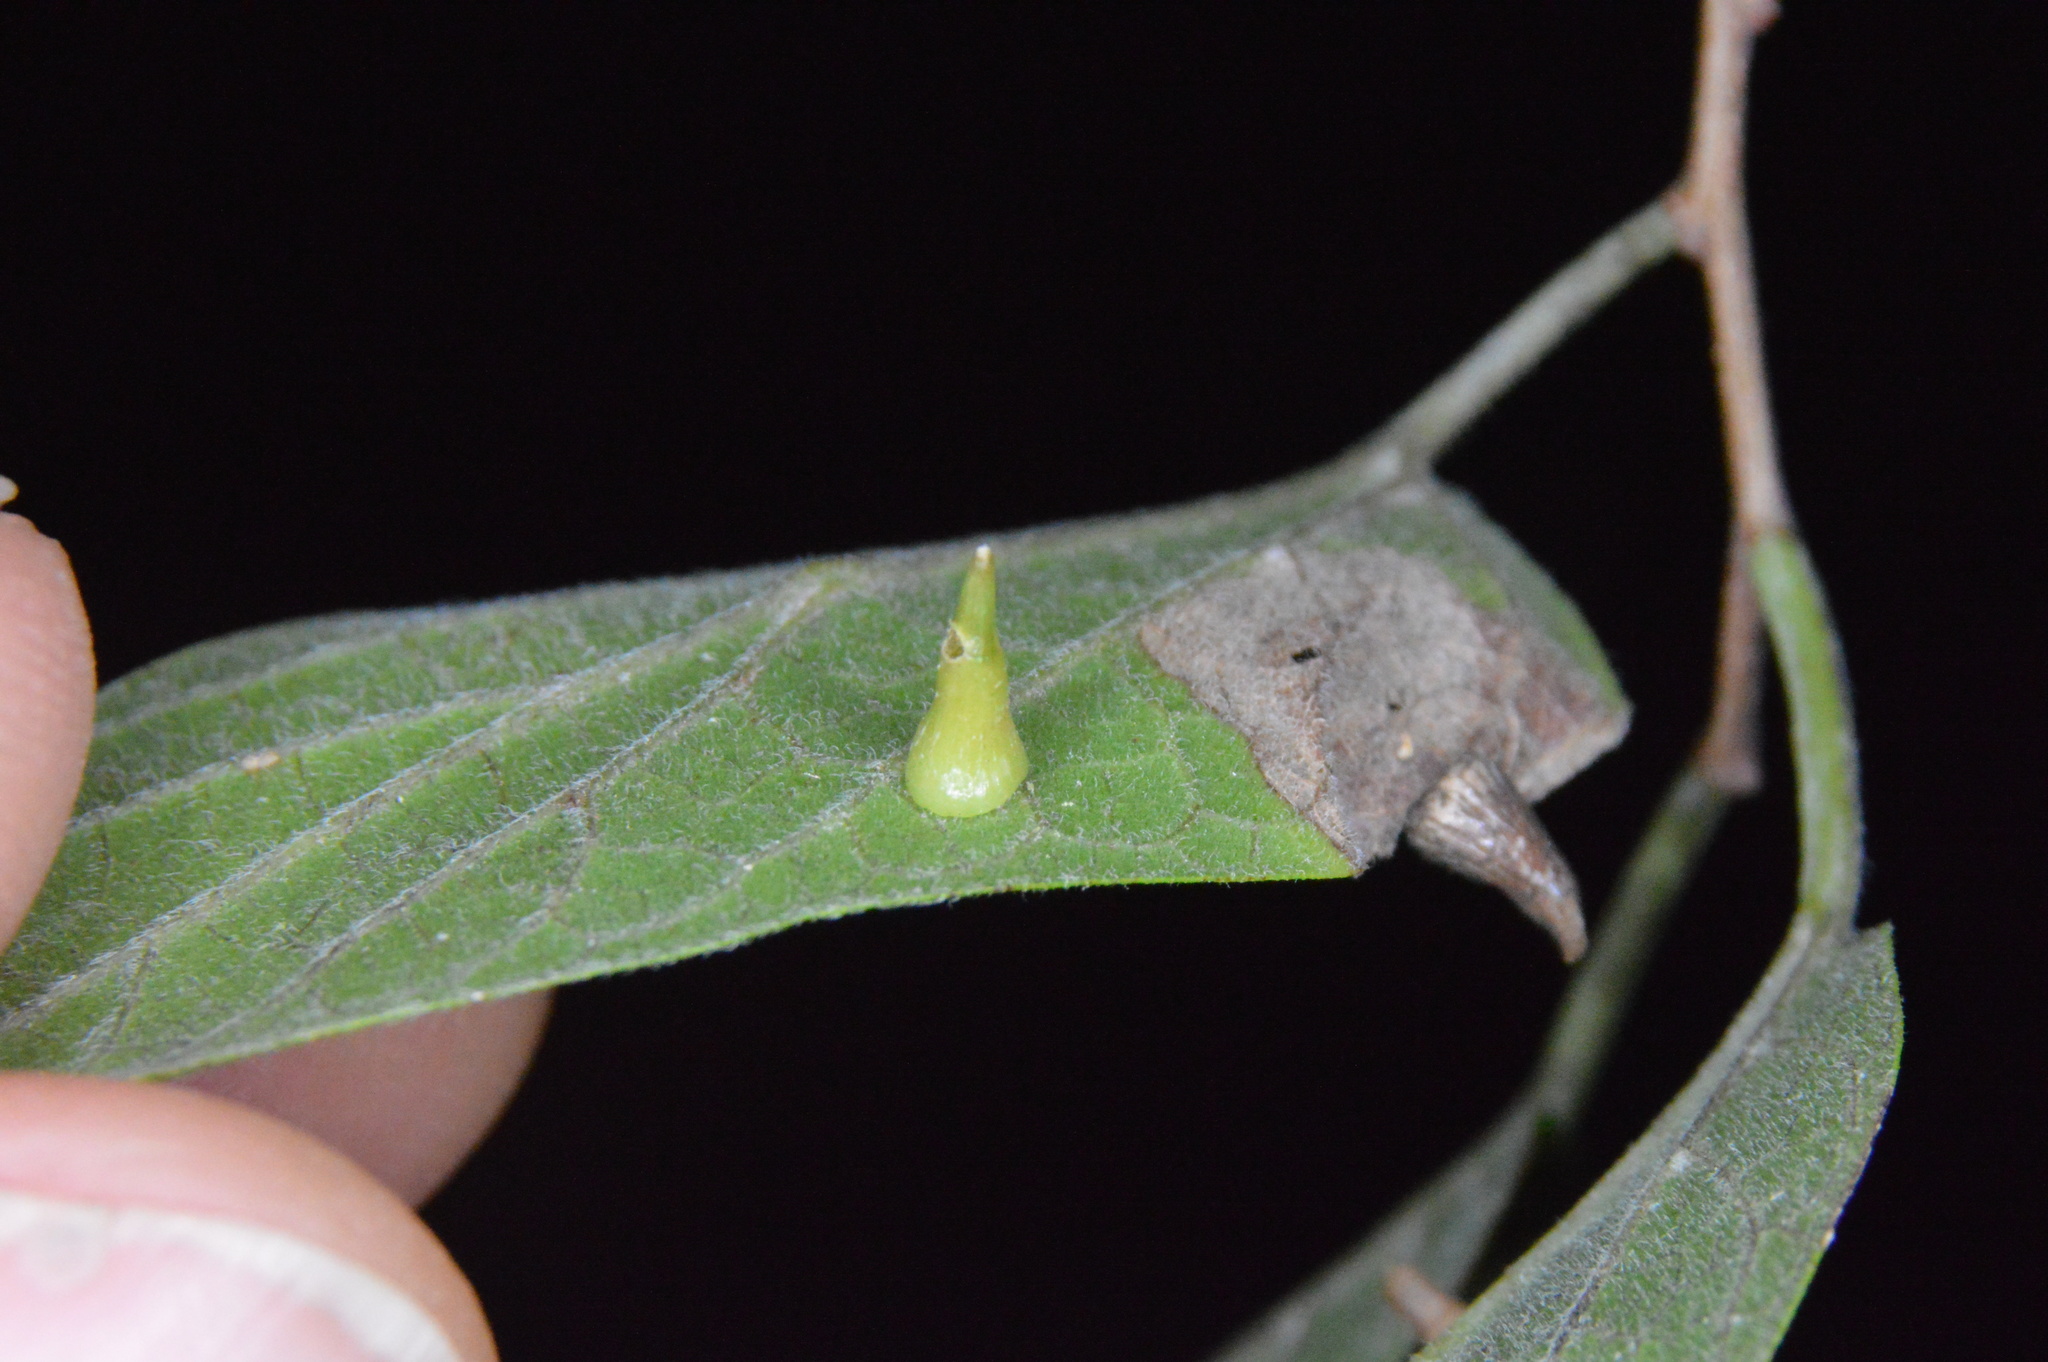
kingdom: Animalia
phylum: Arthropoda
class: Insecta
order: Diptera
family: Cecidomyiidae
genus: Celticecis
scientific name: Celticecis subulata
